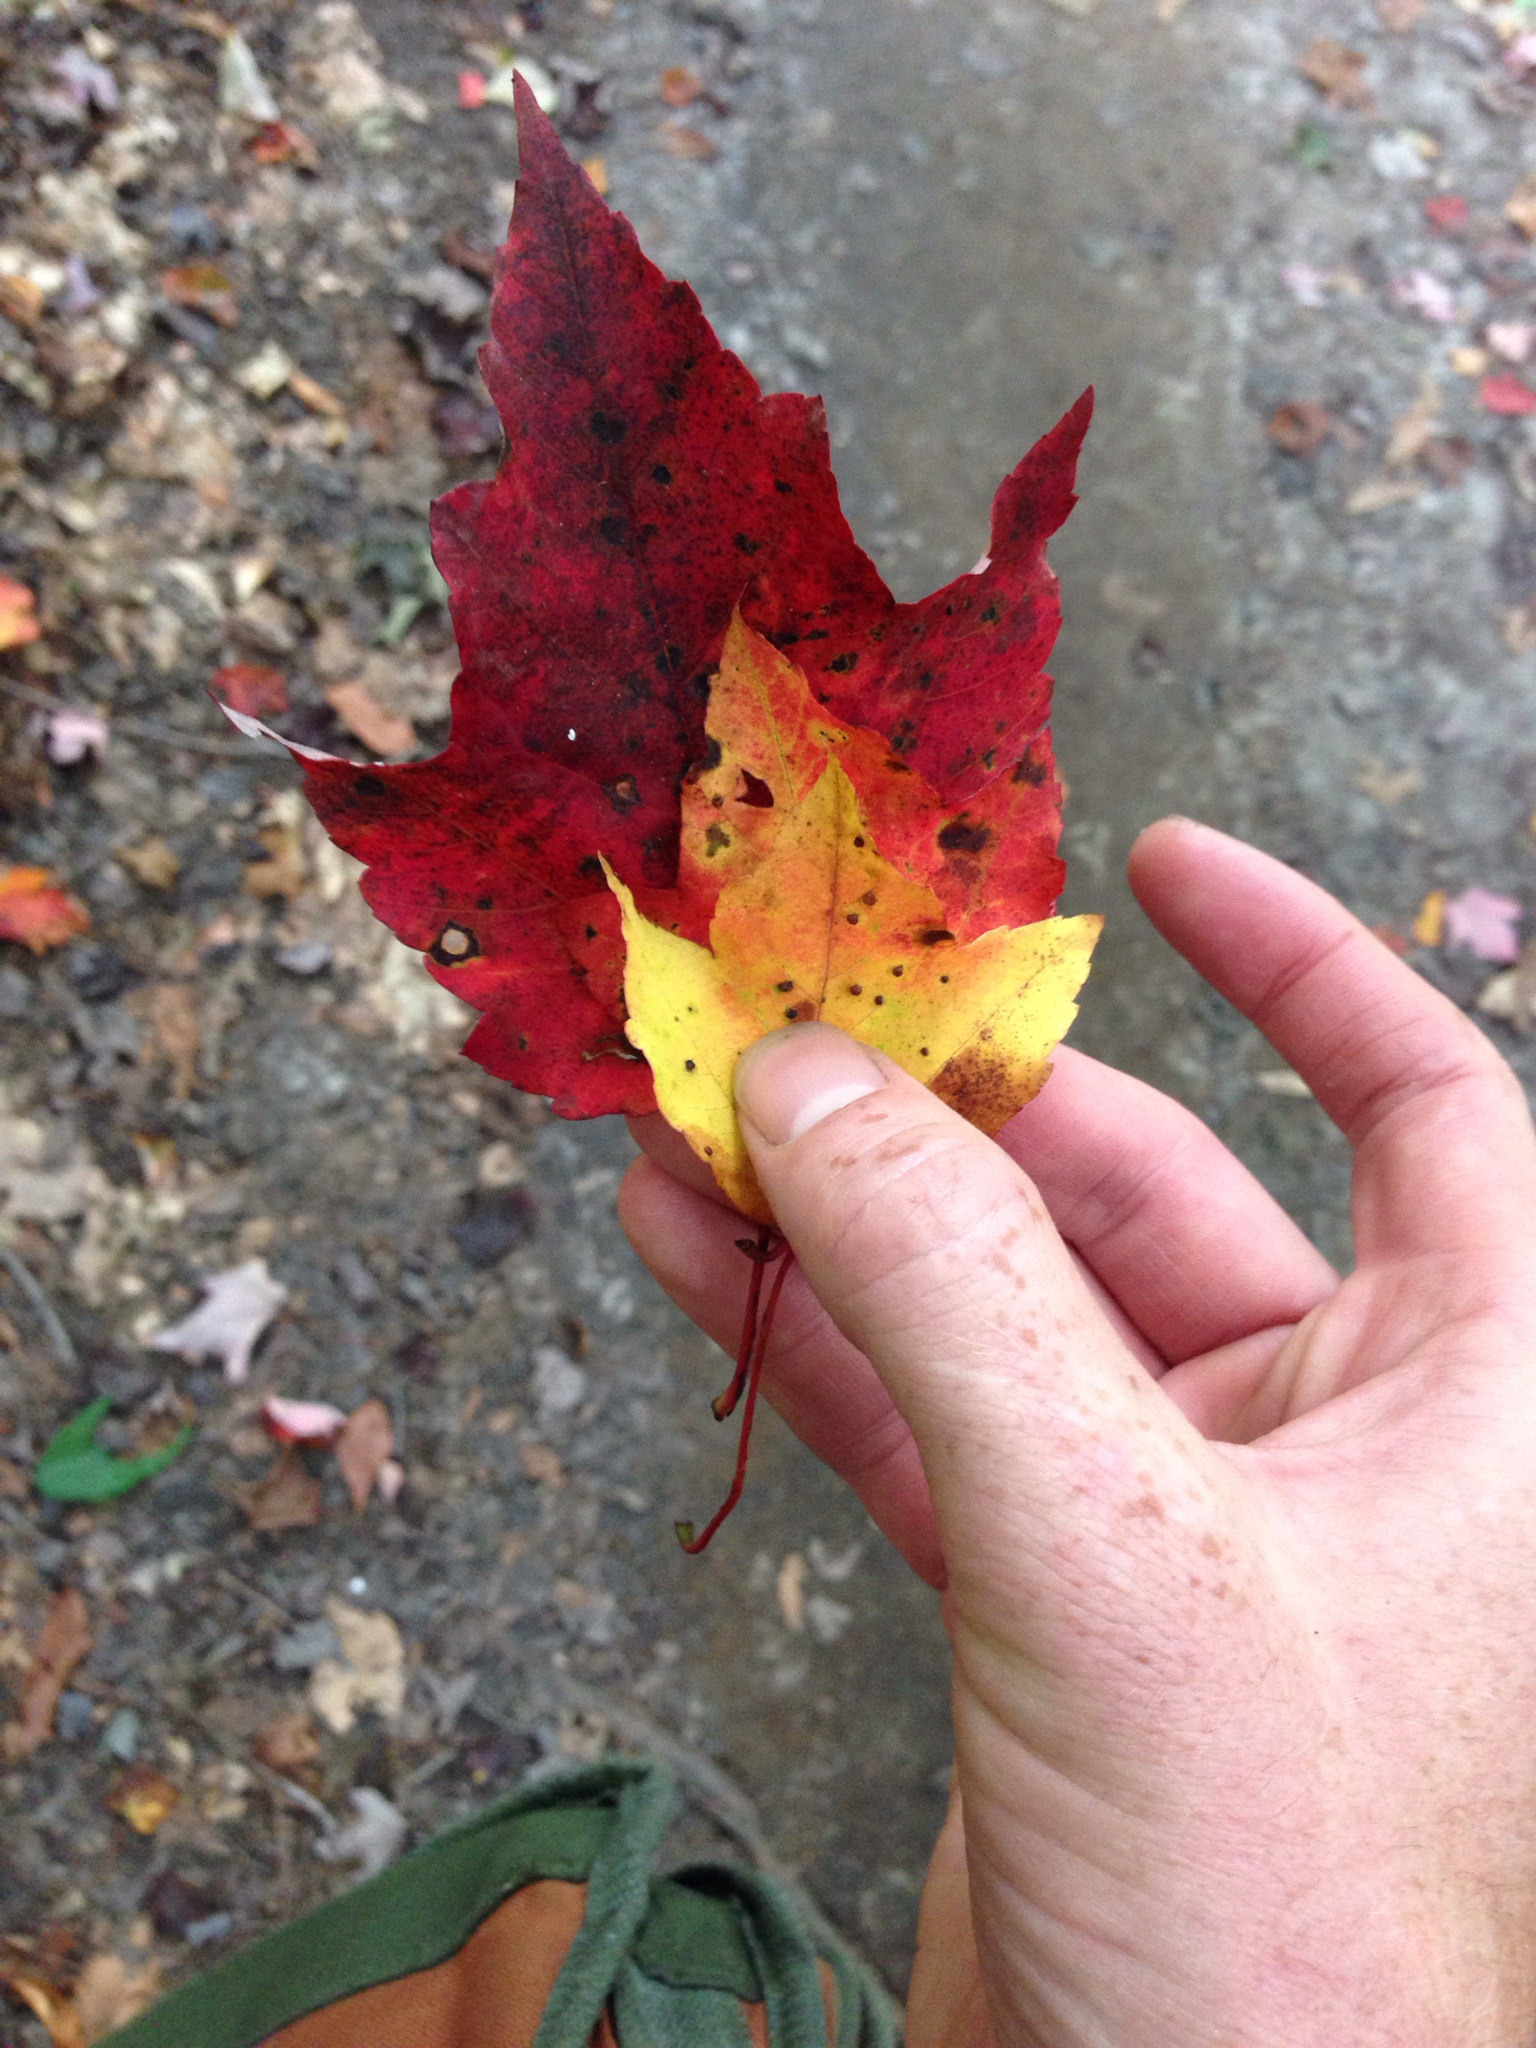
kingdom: Plantae
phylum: Tracheophyta
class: Magnoliopsida
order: Sapindales
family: Sapindaceae
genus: Acer
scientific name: Acer rubrum
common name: Red maple
